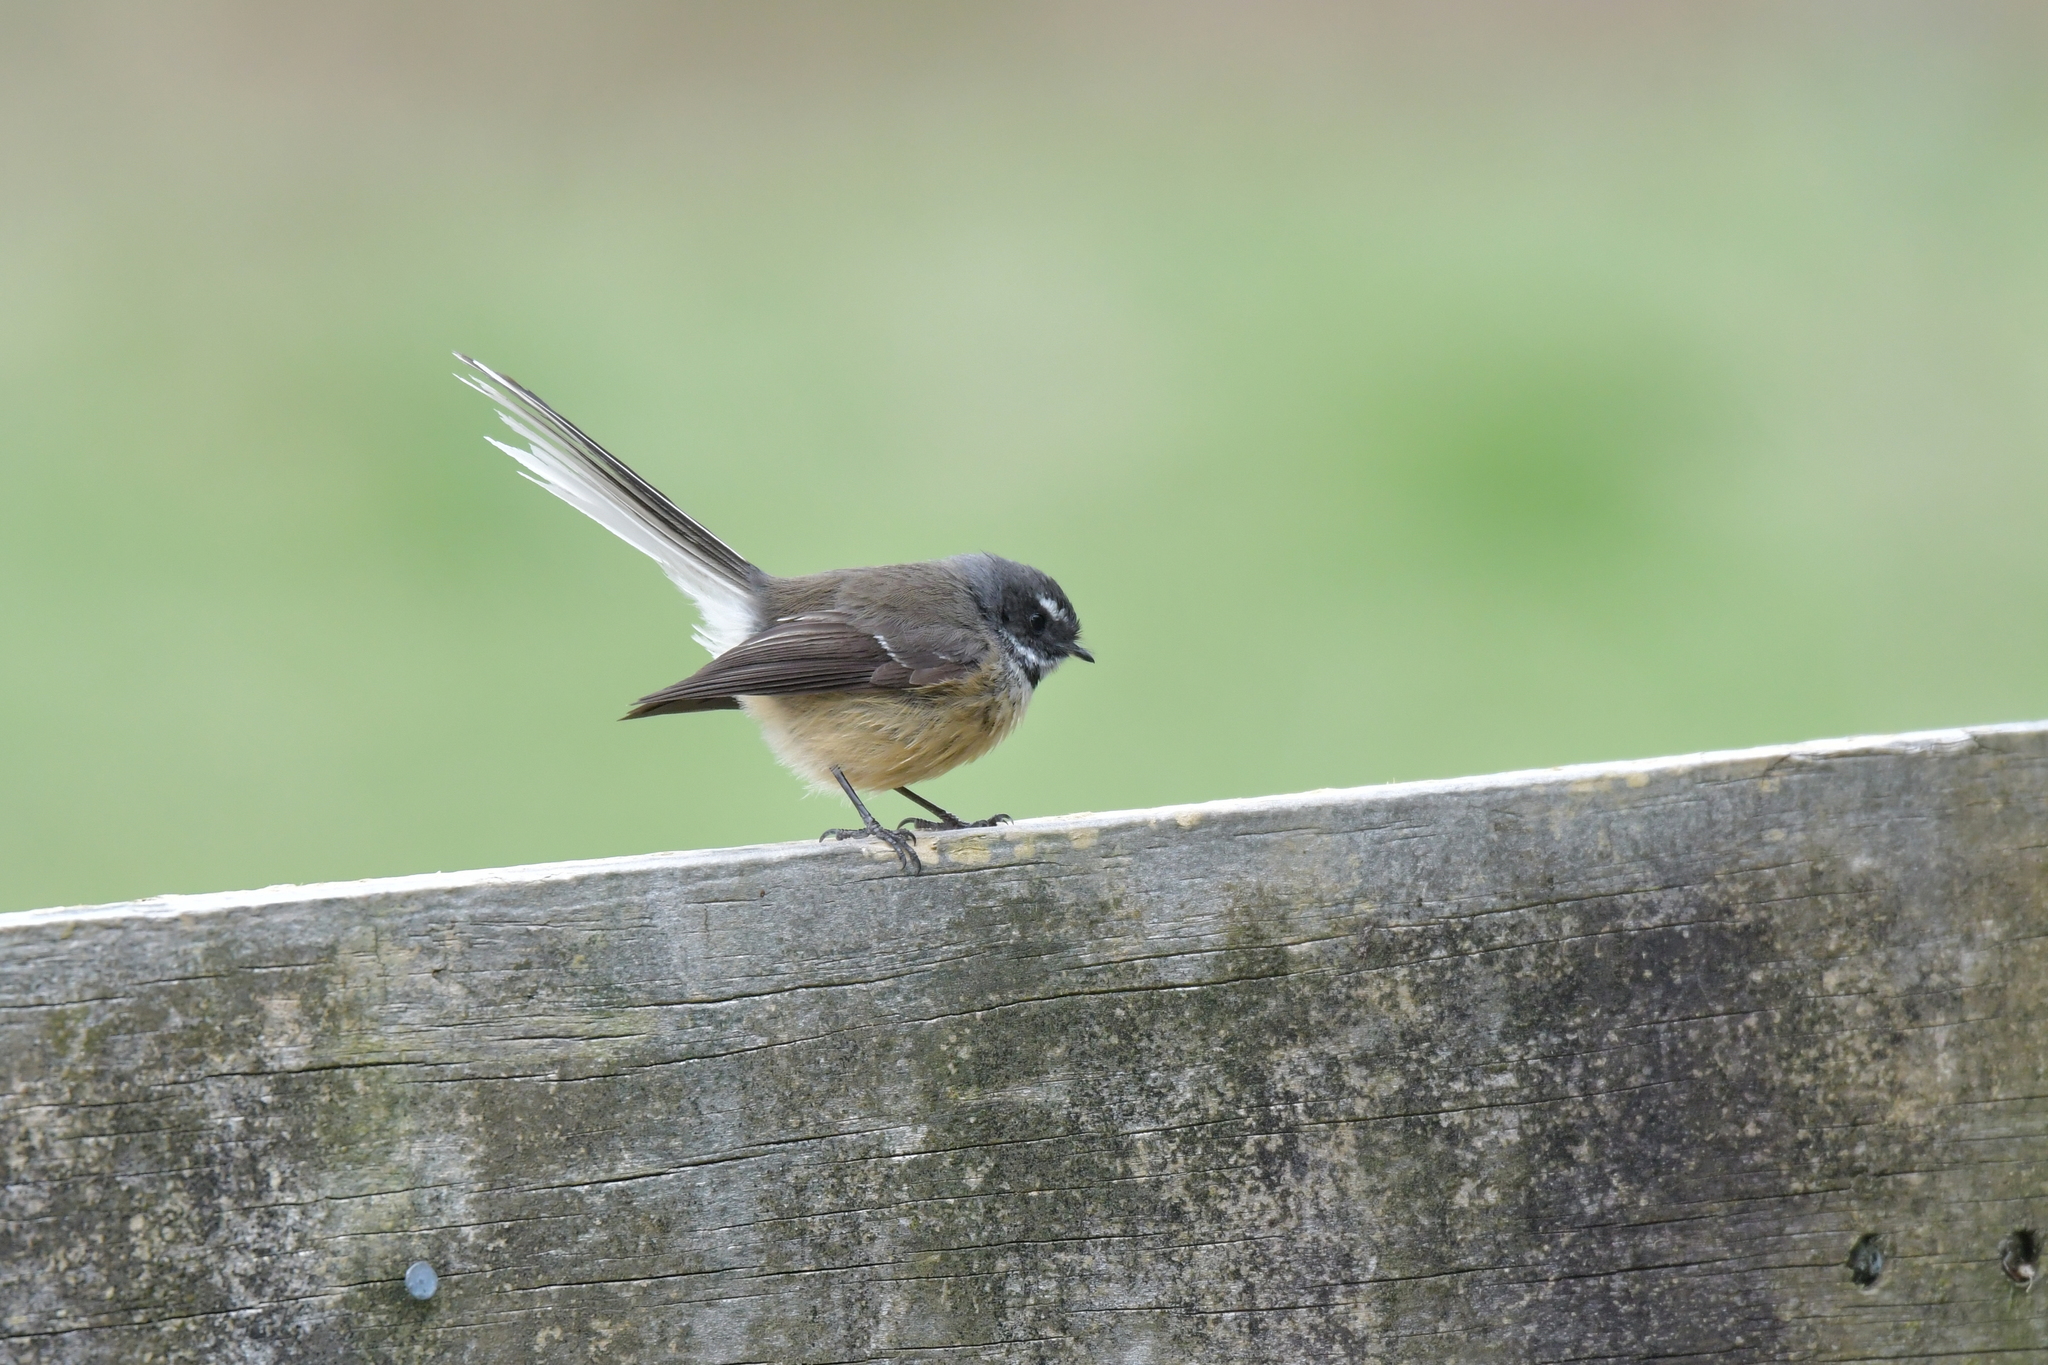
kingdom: Animalia
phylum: Chordata
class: Aves
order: Passeriformes
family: Rhipiduridae
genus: Rhipidura
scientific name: Rhipidura fuliginosa
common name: New zealand fantail
